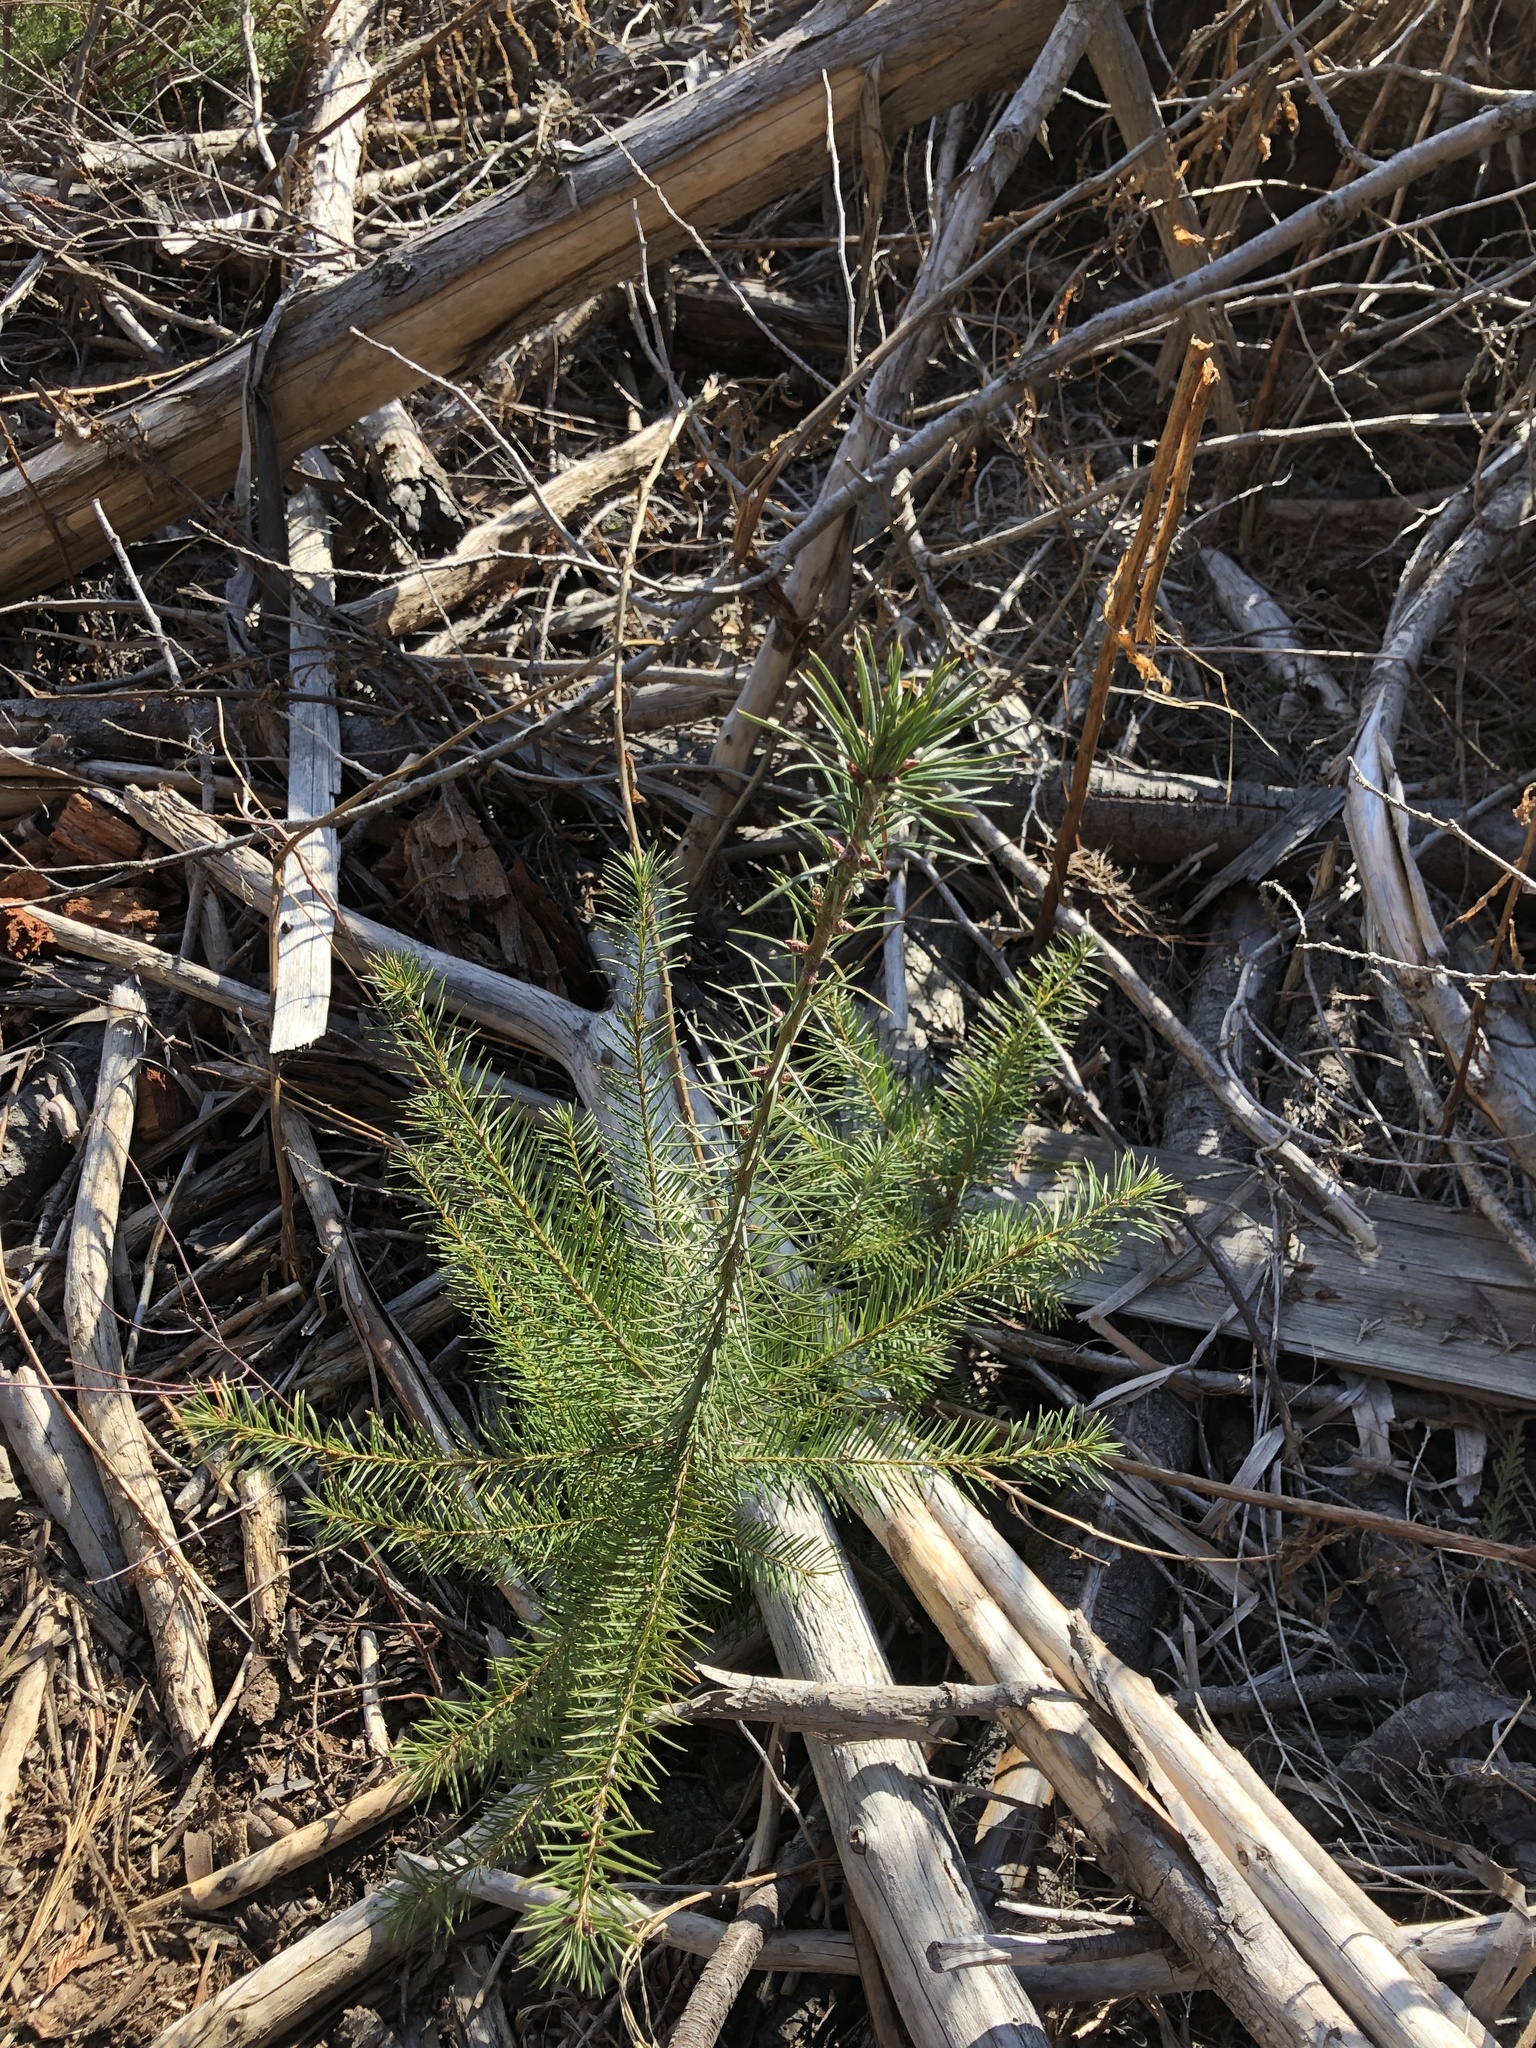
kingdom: Plantae
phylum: Tracheophyta
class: Pinopsida
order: Pinales
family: Pinaceae
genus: Pseudotsuga
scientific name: Pseudotsuga menziesii
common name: Douglas fir
